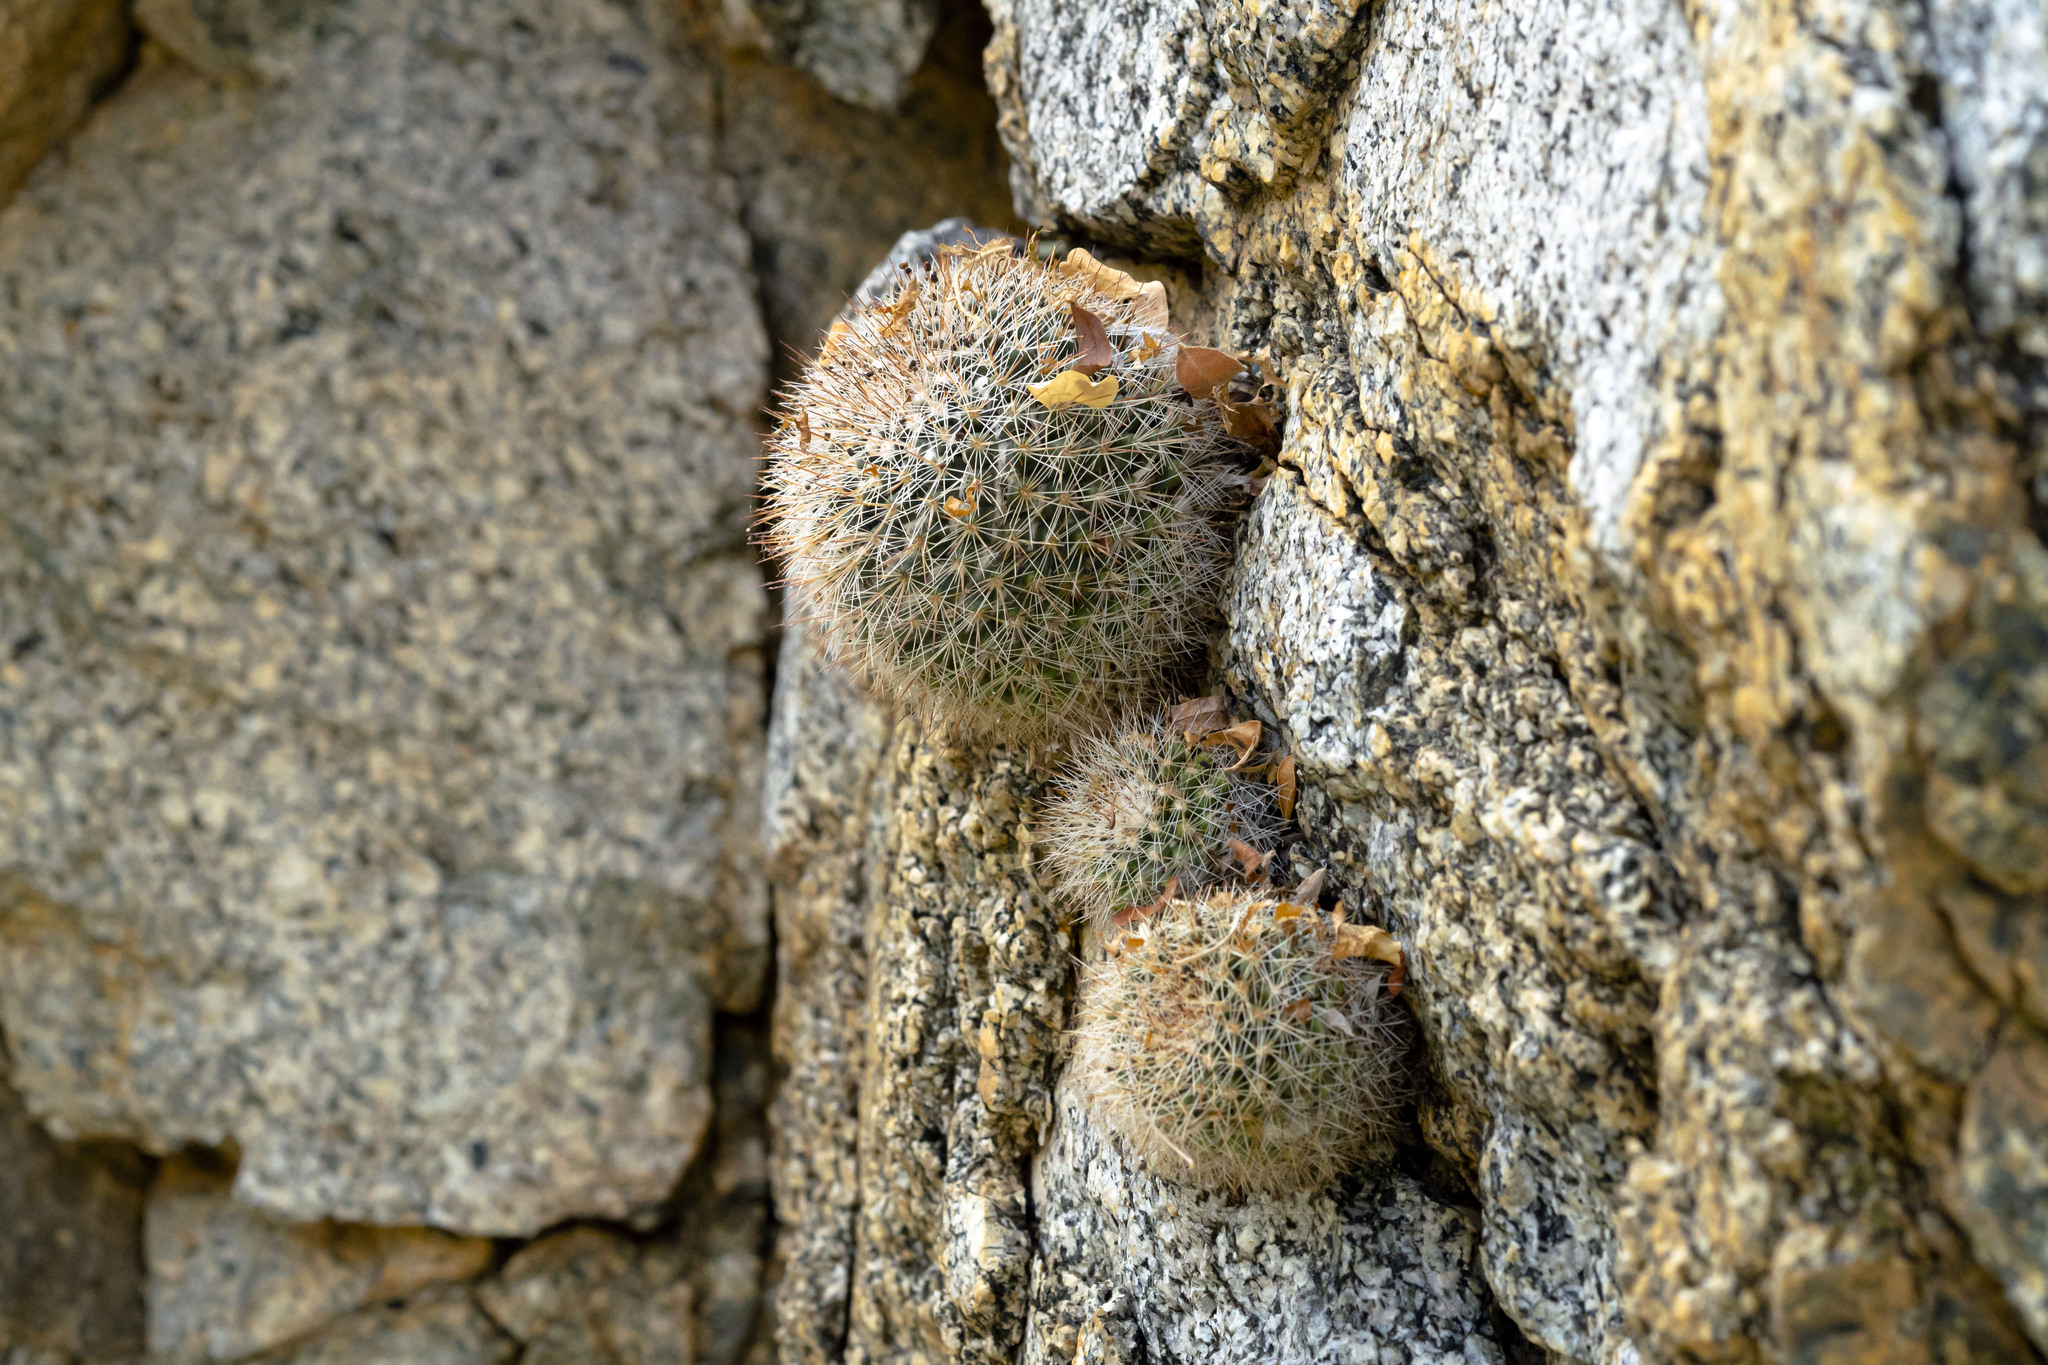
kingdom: Plantae
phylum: Tracheophyta
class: Magnoliopsida
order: Caryophyllales
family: Cactaceae
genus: Mammillaria
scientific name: Mammillaria evermanniana
